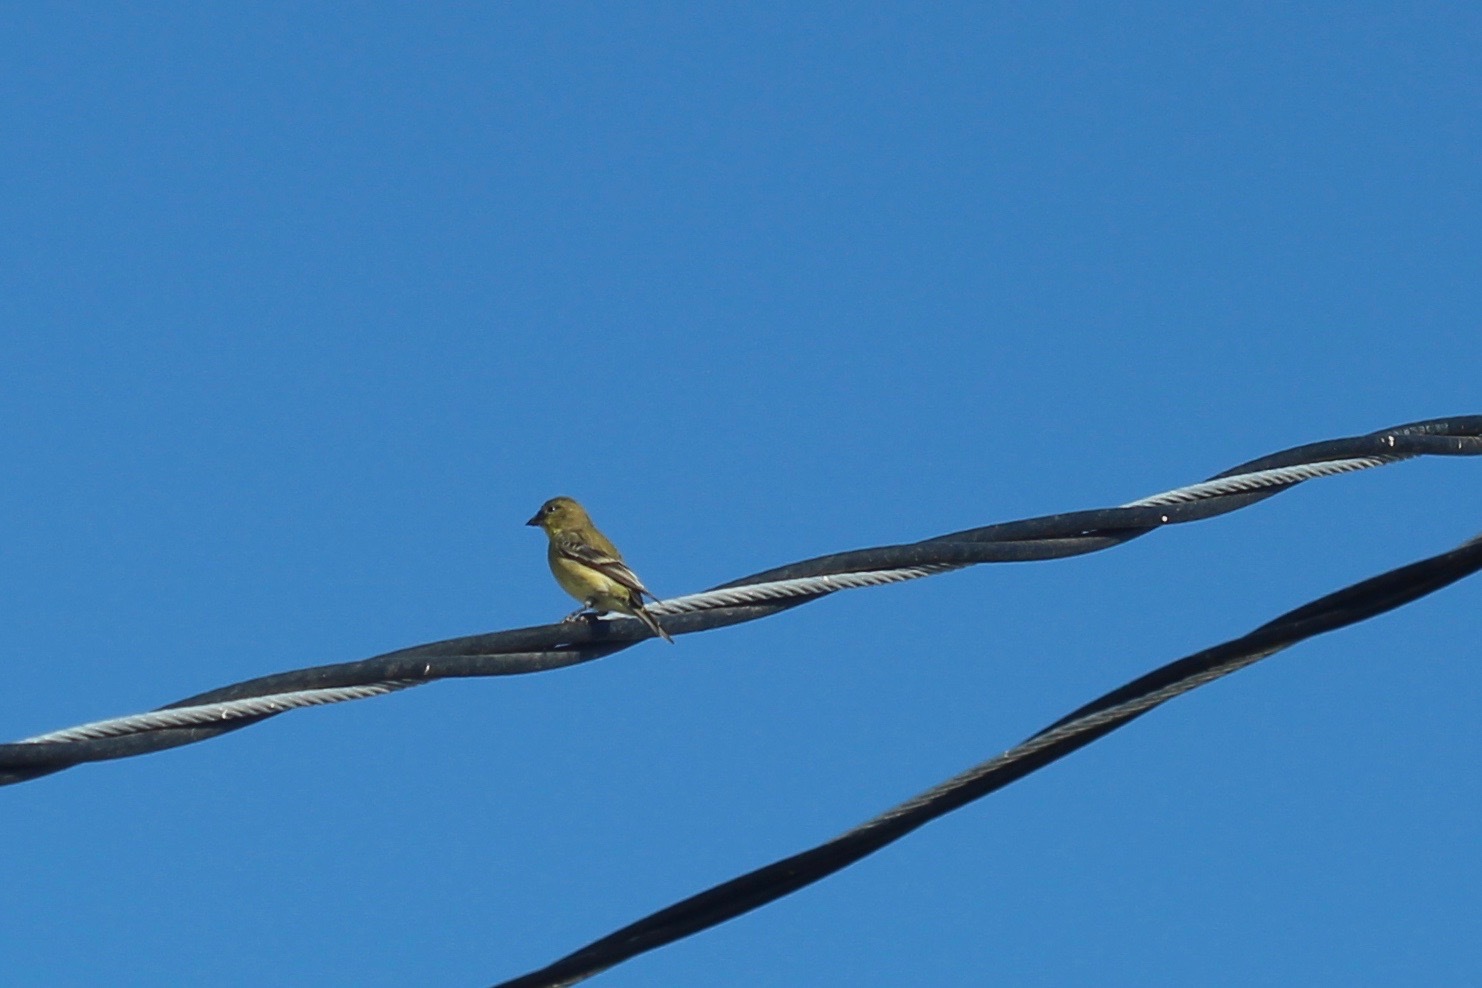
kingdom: Animalia
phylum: Chordata
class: Aves
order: Passeriformes
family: Fringillidae
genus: Spinus
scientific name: Spinus psaltria
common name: Lesser goldfinch
